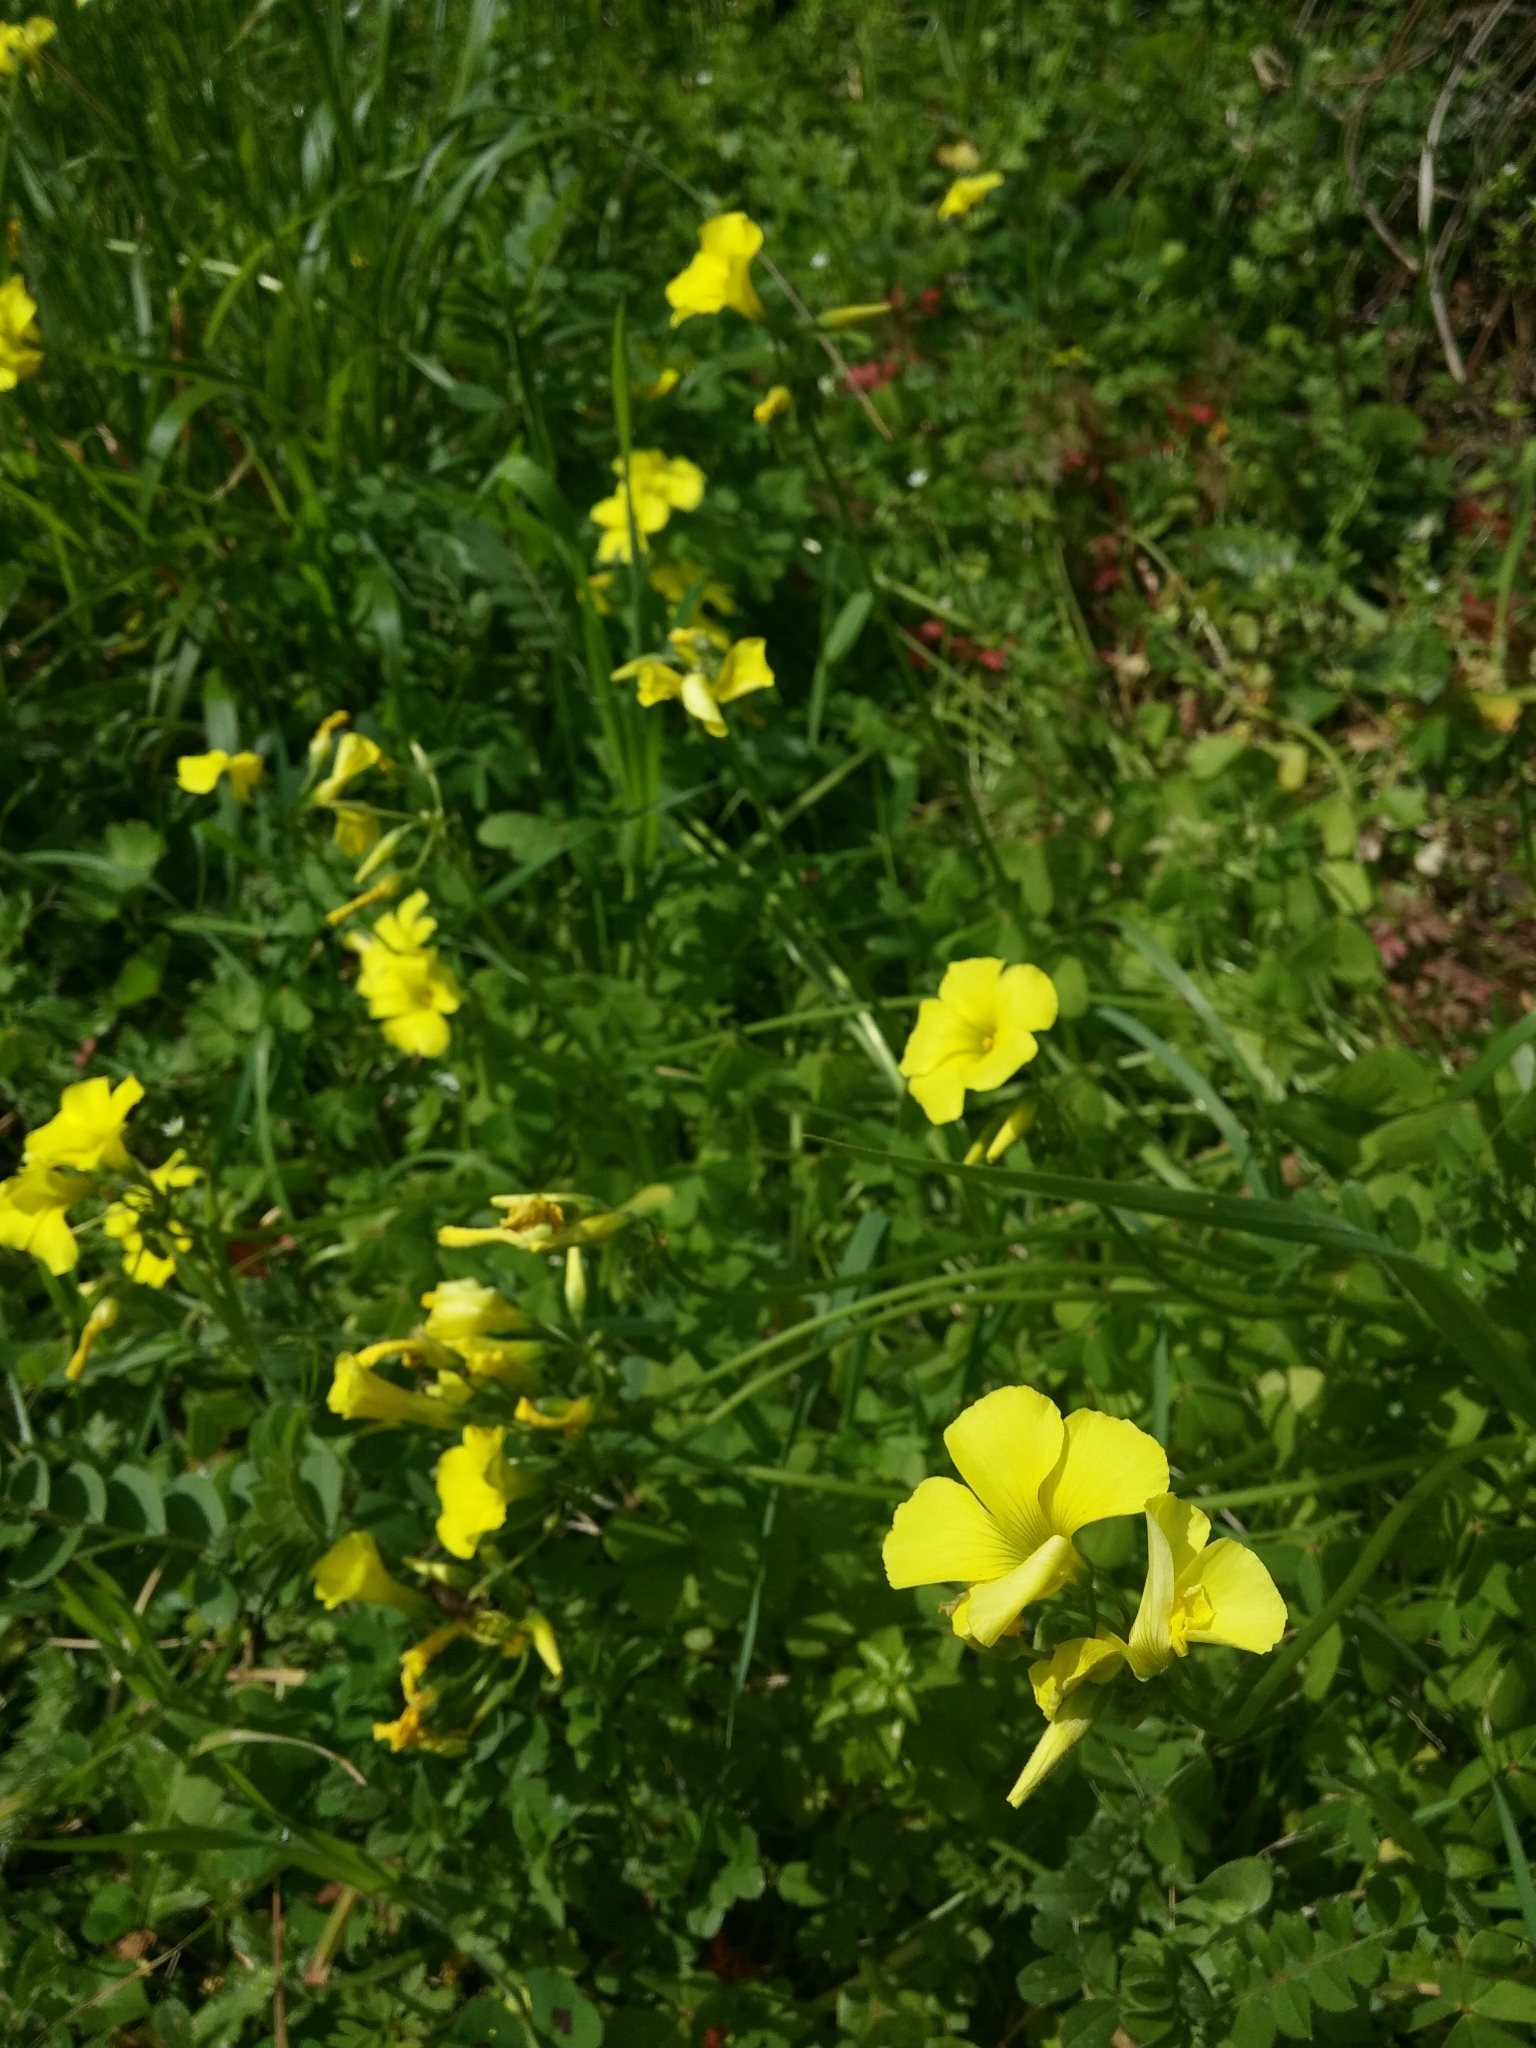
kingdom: Plantae
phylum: Tracheophyta
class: Magnoliopsida
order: Oxalidales
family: Oxalidaceae
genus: Oxalis
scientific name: Oxalis pes-caprae
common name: Bermuda-buttercup
